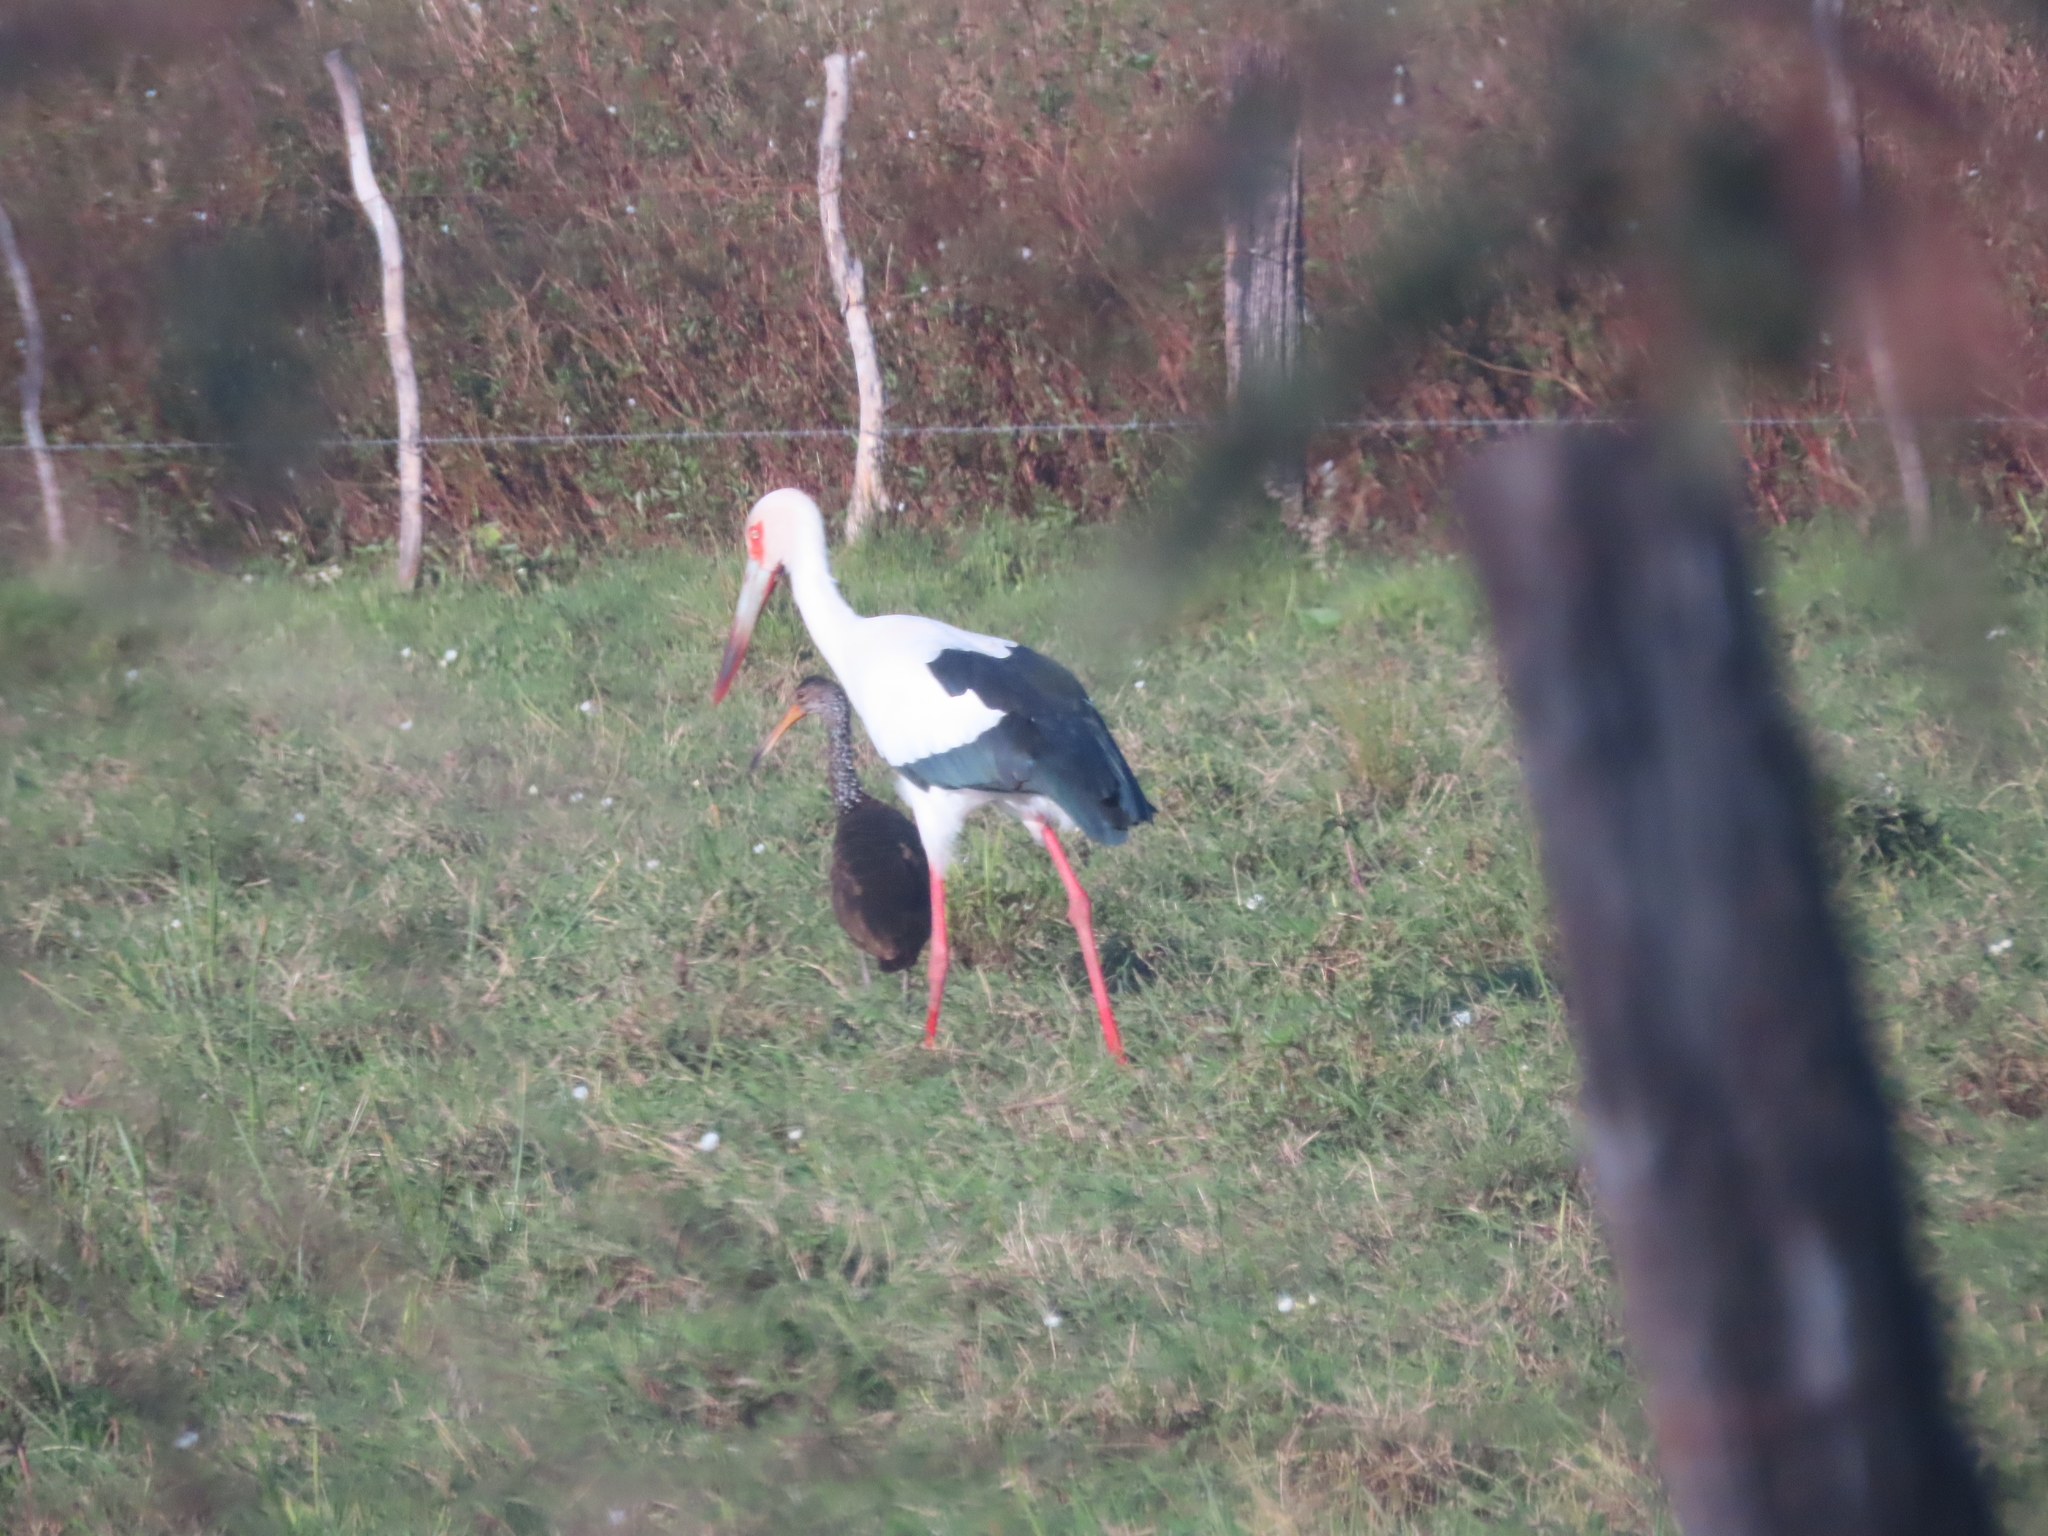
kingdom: Animalia
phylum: Chordata
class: Aves
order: Ciconiiformes
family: Ciconiidae
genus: Ciconia
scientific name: Ciconia maguari
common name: Maguari stork
